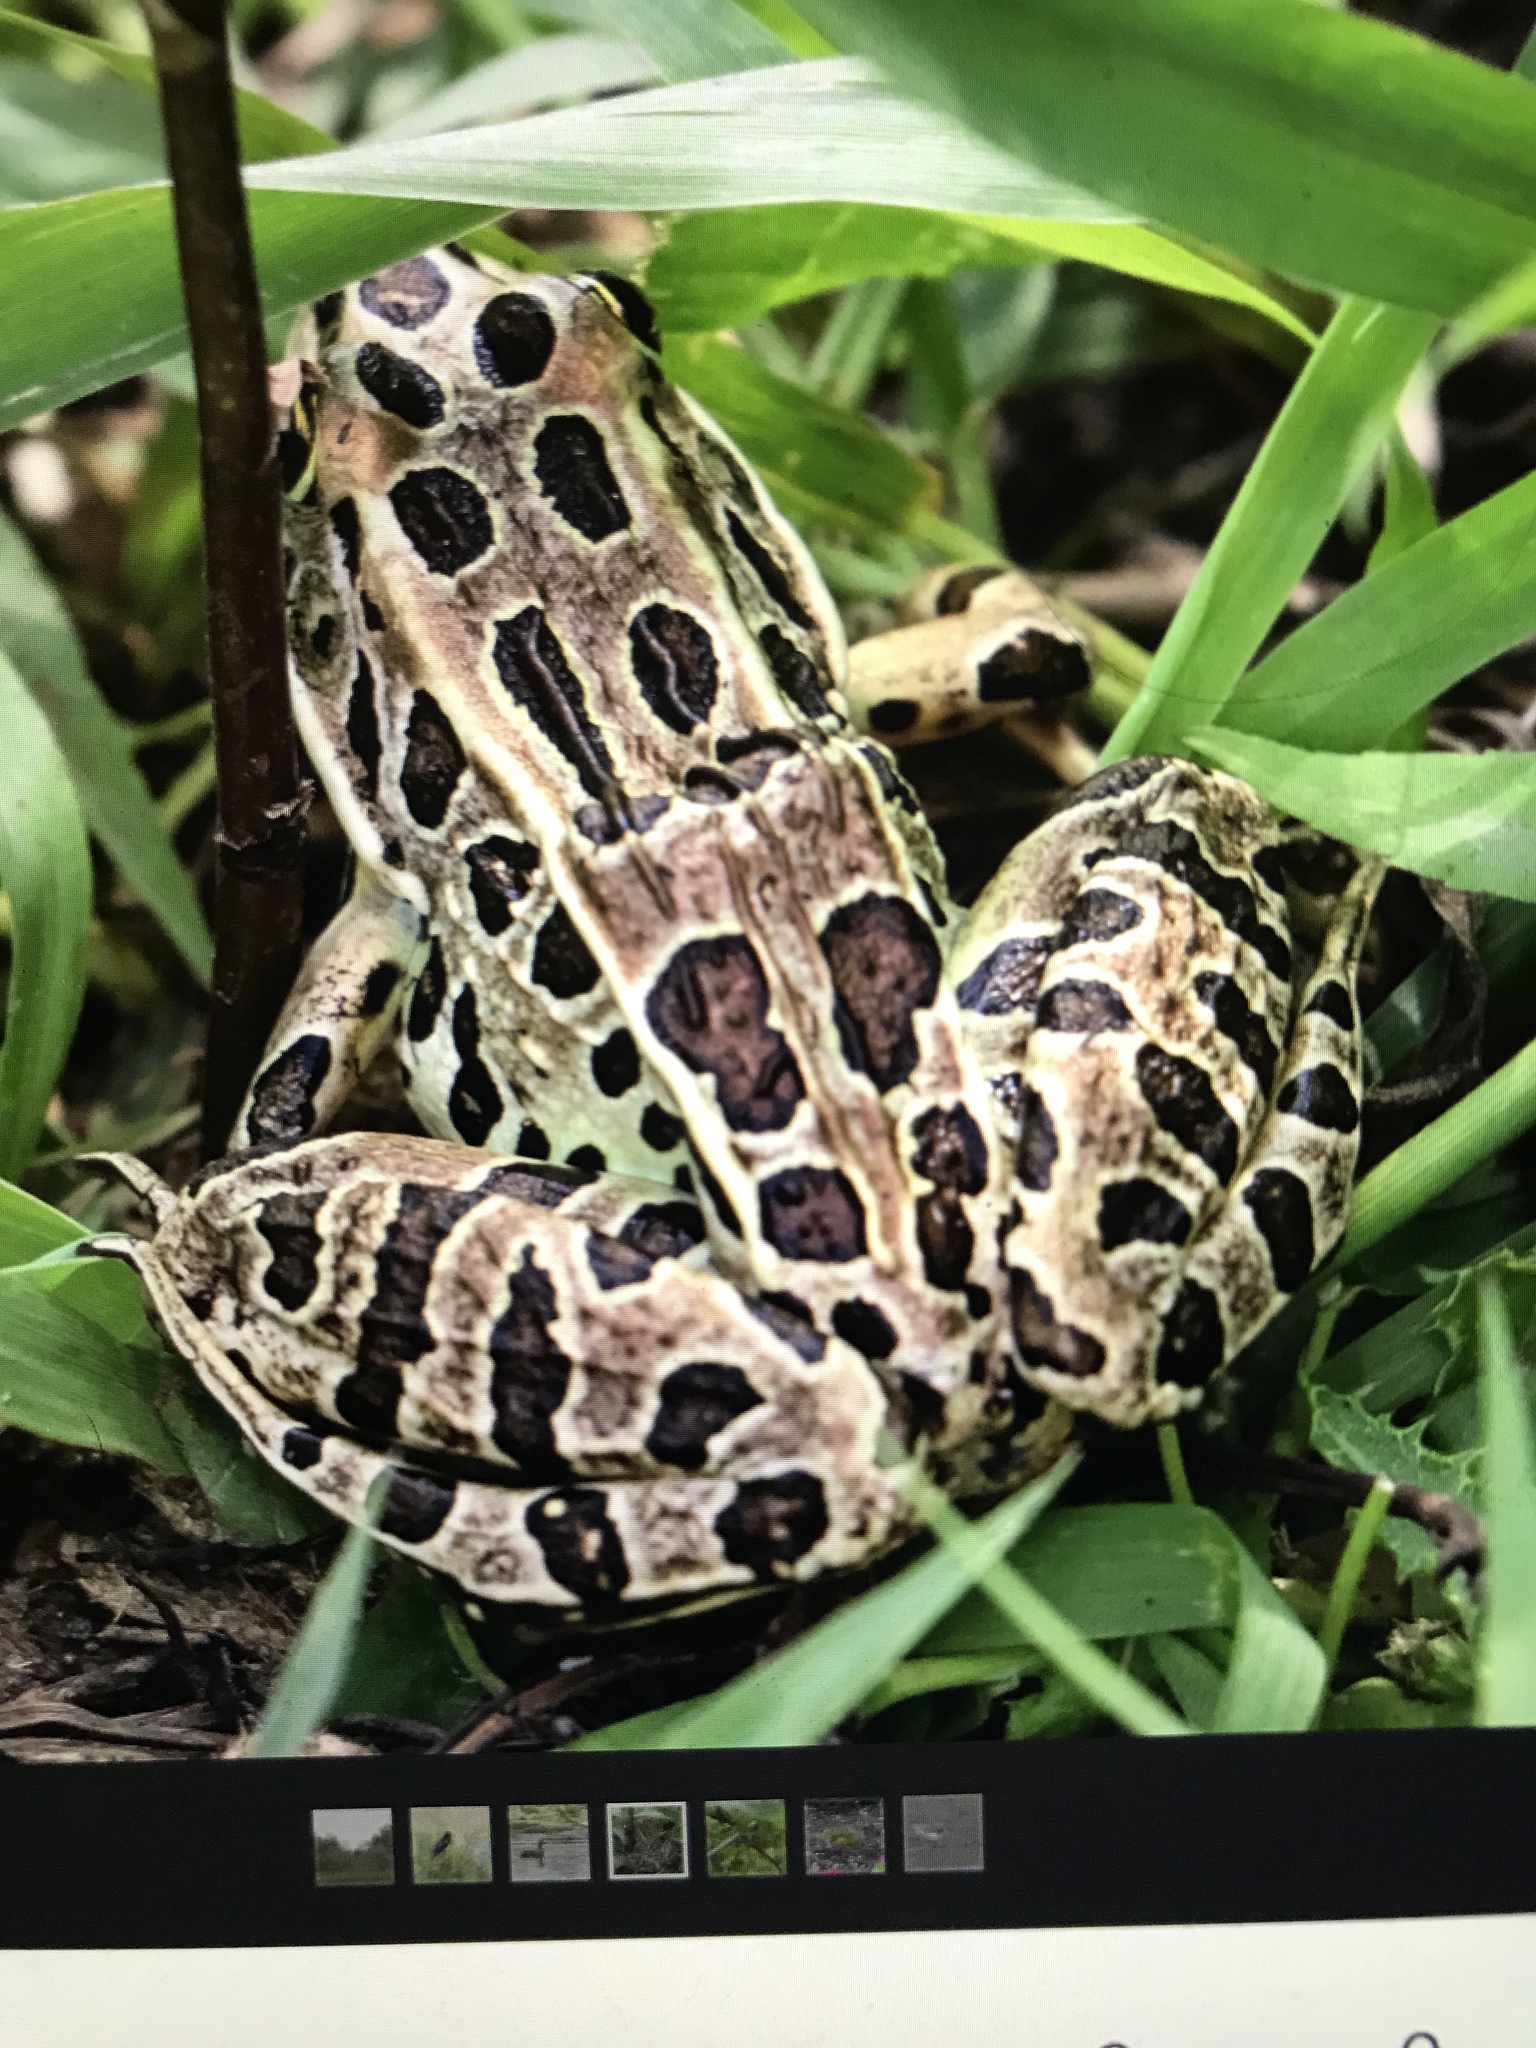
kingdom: Animalia
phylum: Chordata
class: Amphibia
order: Anura
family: Ranidae
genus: Lithobates
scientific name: Lithobates pipiens
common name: Northern leopard frog
